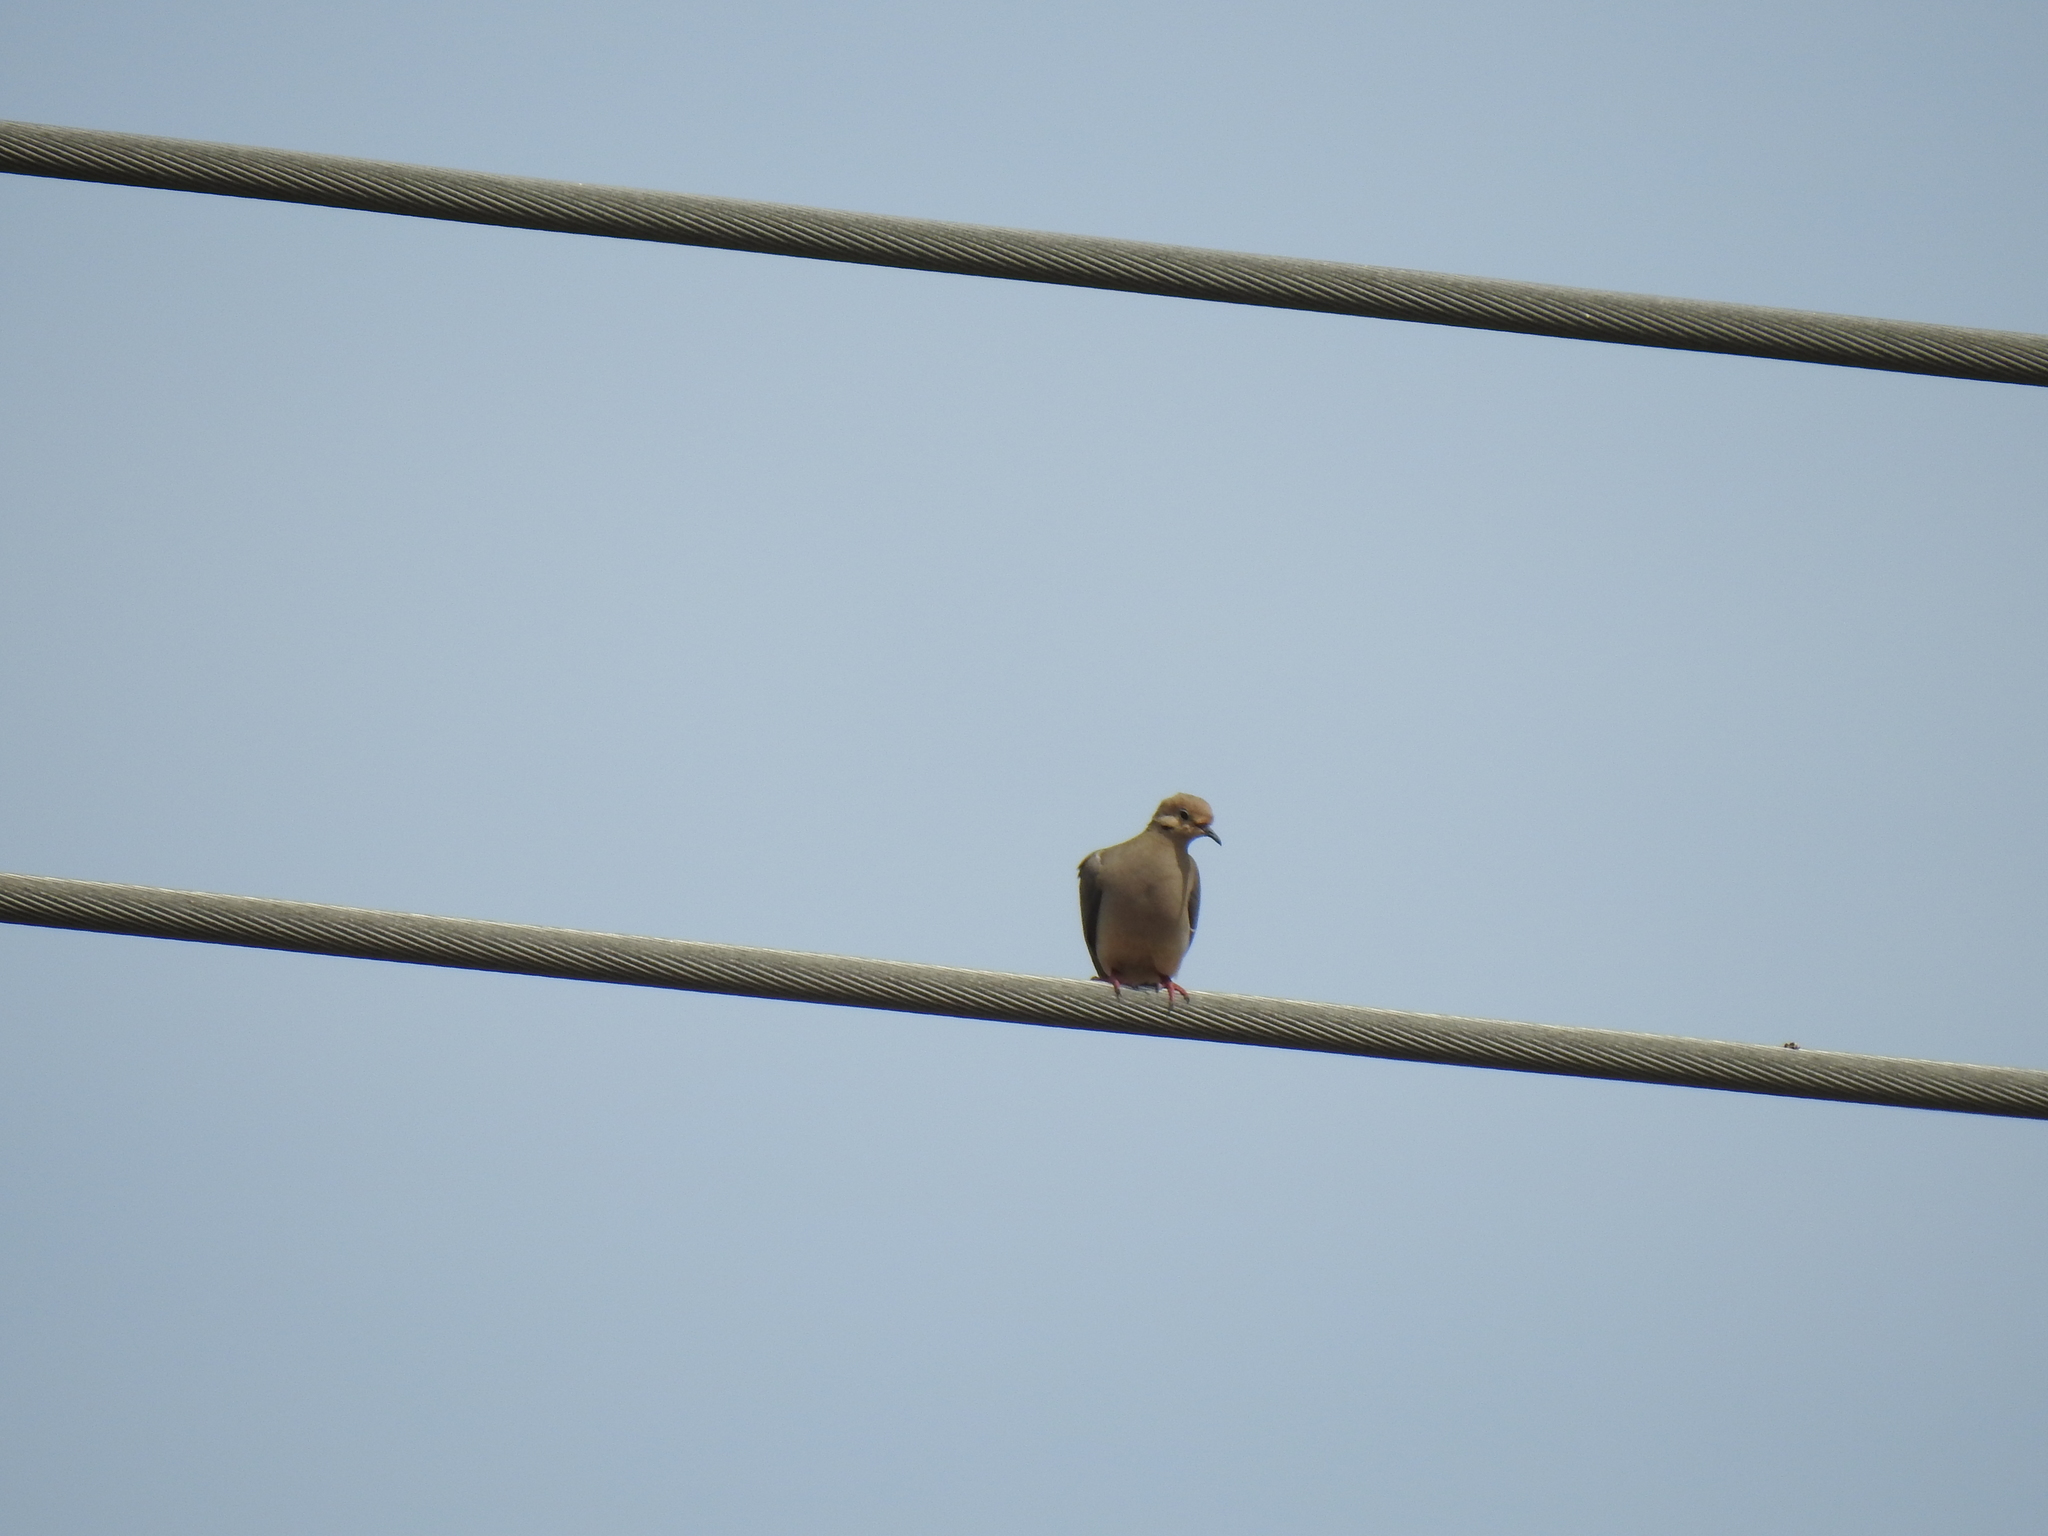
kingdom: Animalia
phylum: Chordata
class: Aves
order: Columbiformes
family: Columbidae
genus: Zenaida
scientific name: Zenaida macroura
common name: Mourning dove
